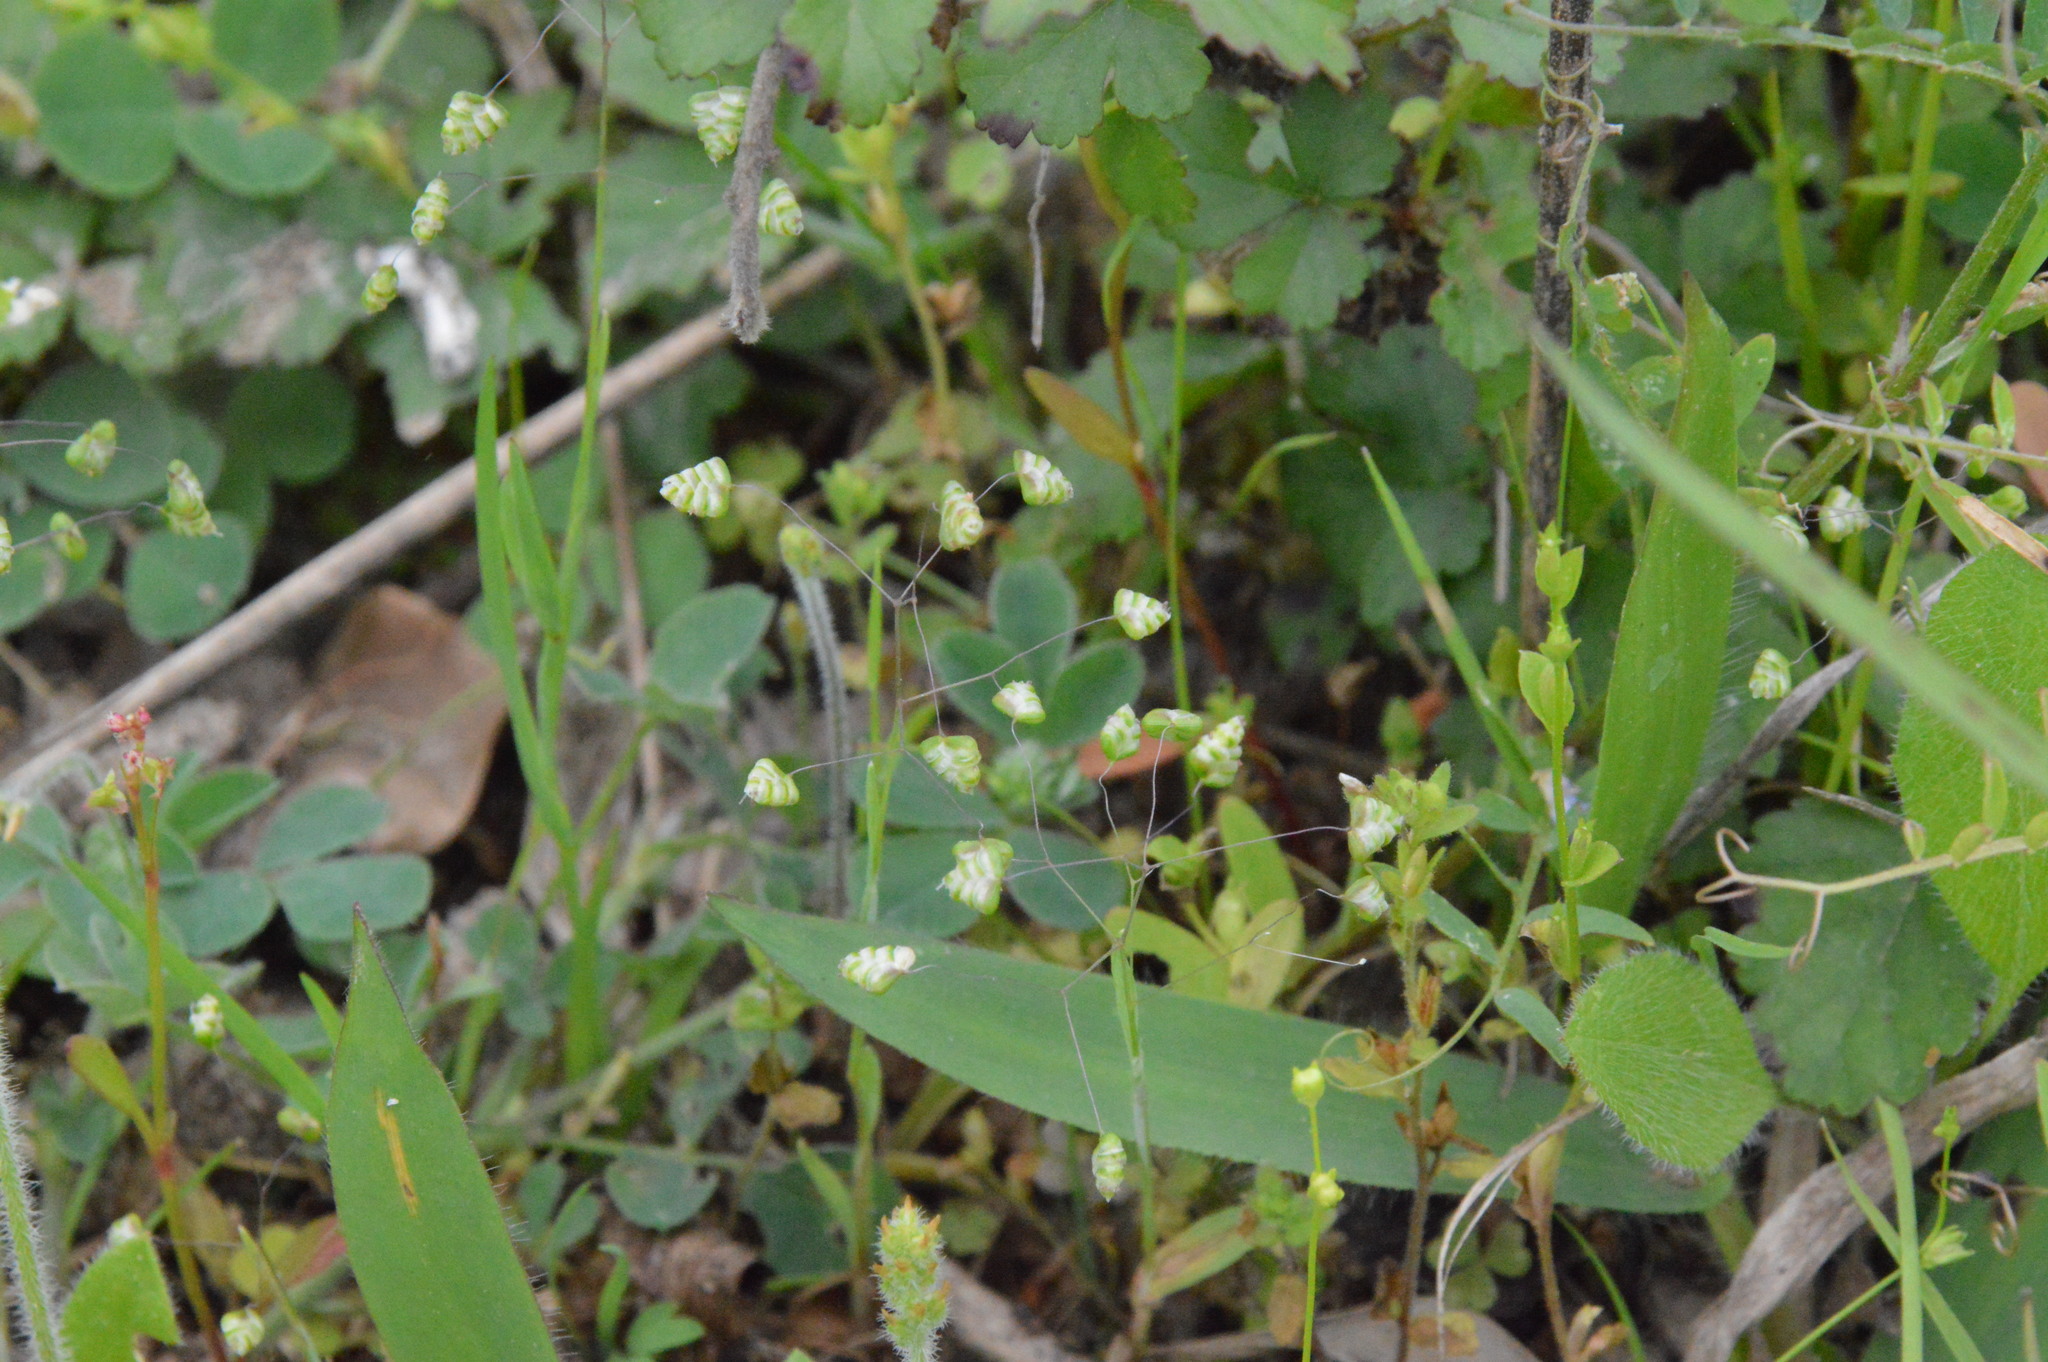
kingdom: Plantae
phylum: Tracheophyta
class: Liliopsida
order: Poales
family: Poaceae
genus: Briza
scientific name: Briza minor
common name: Lesser quaking-grass
